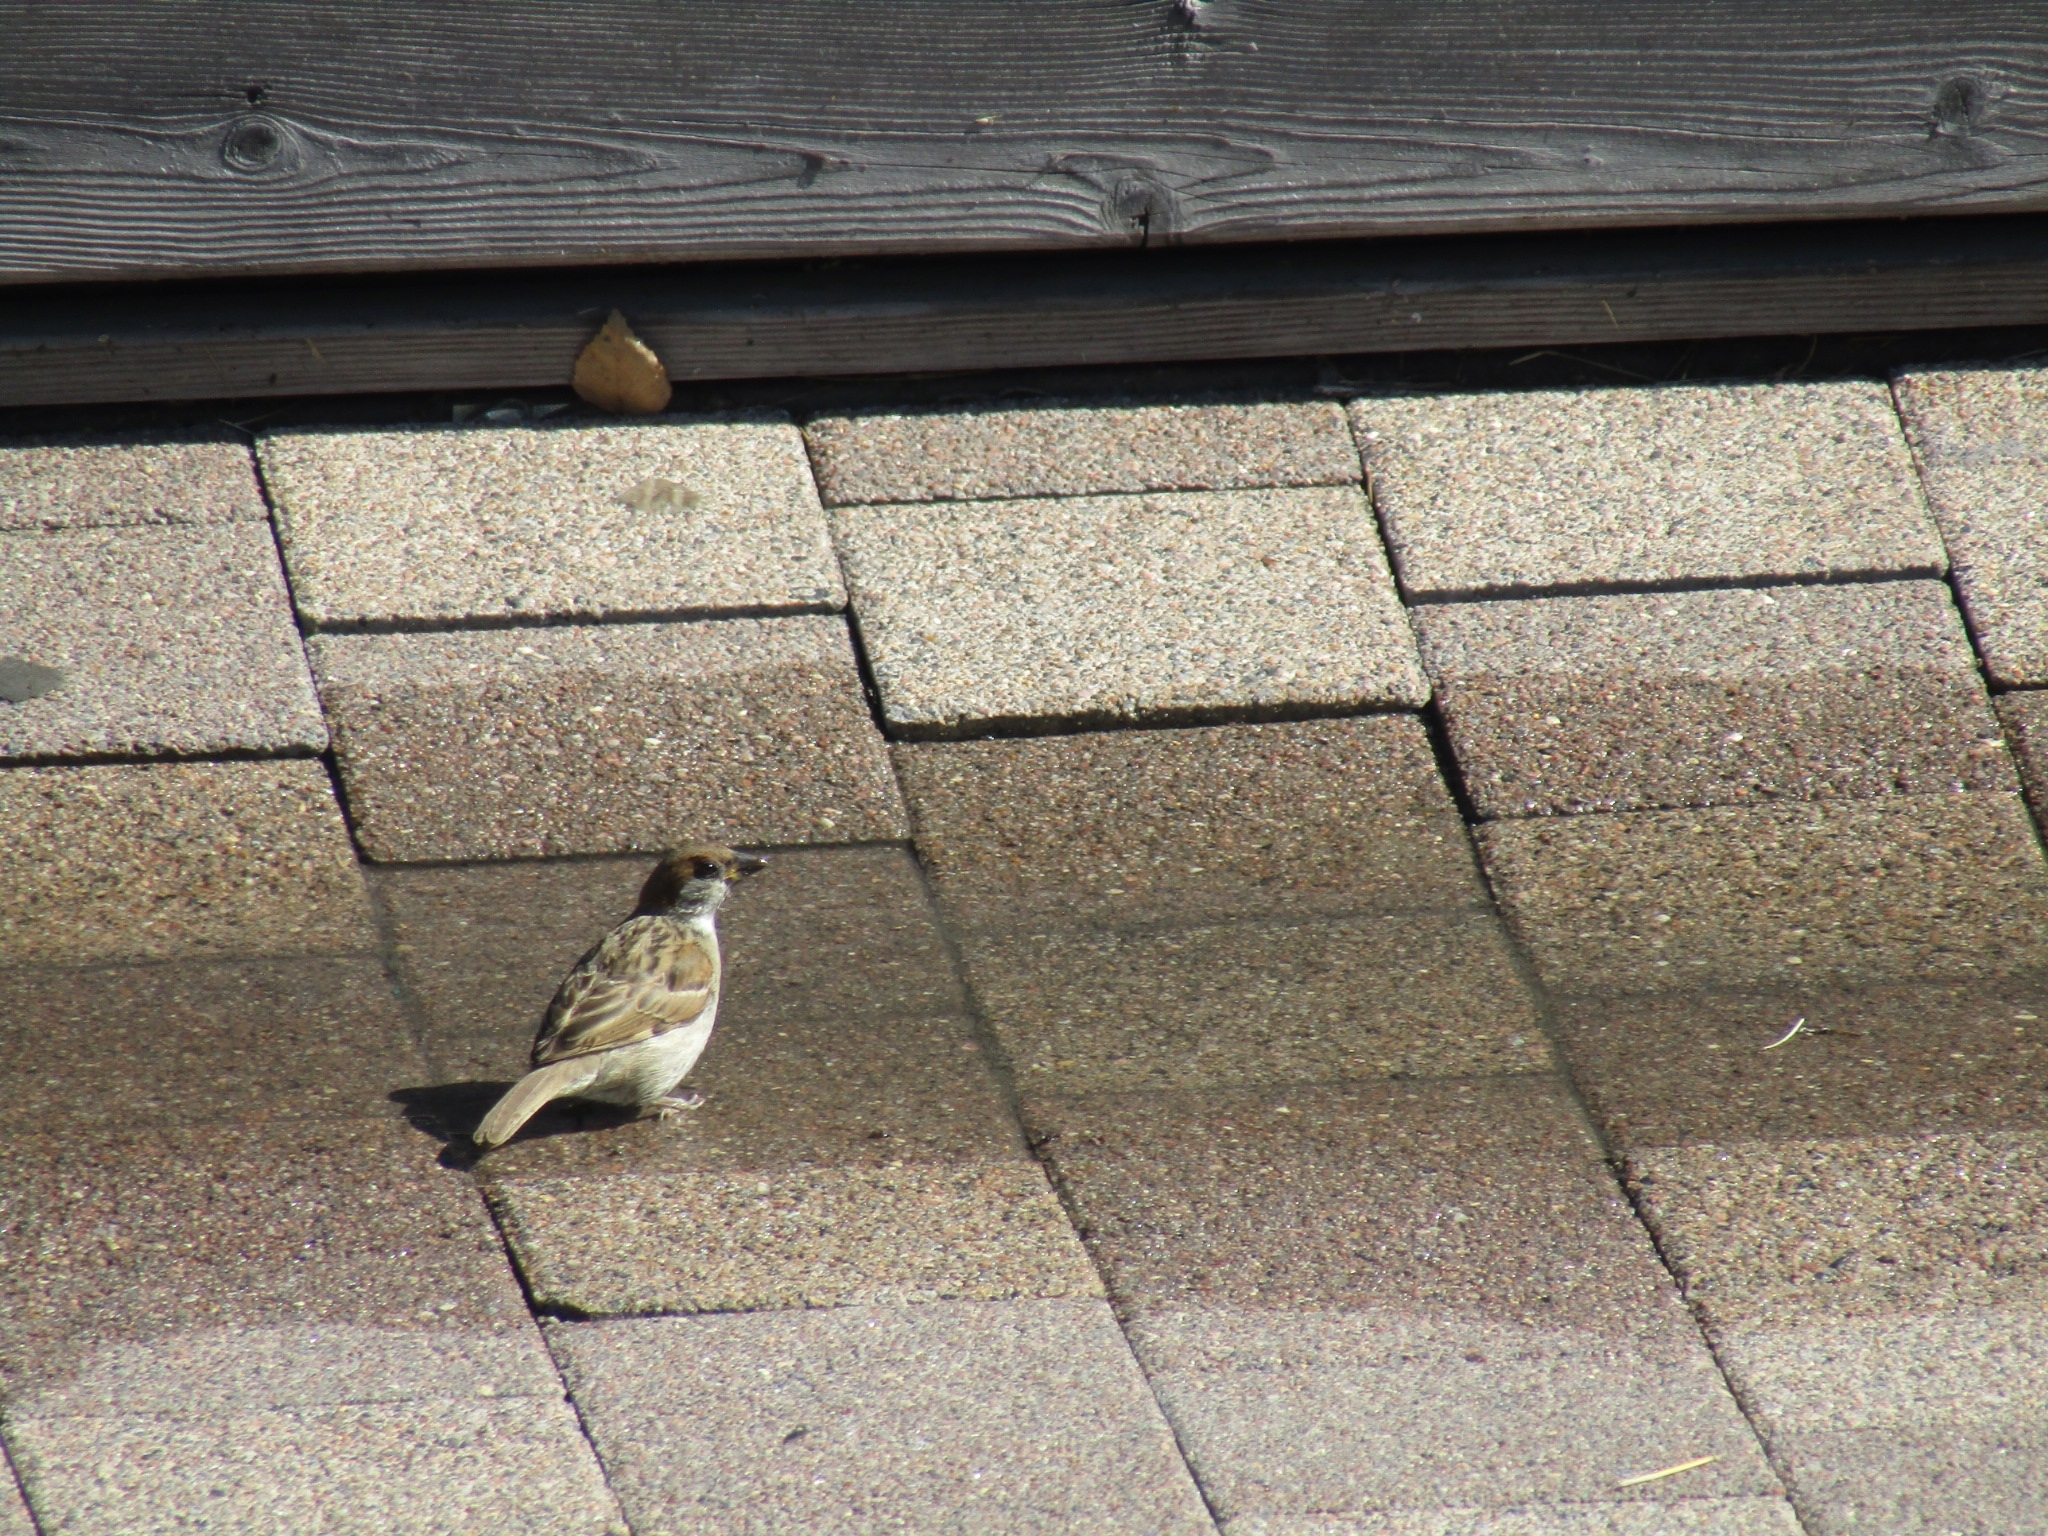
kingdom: Animalia
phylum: Chordata
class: Aves
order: Passeriformes
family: Passeridae
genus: Passer
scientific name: Passer montanus
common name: Eurasian tree sparrow
